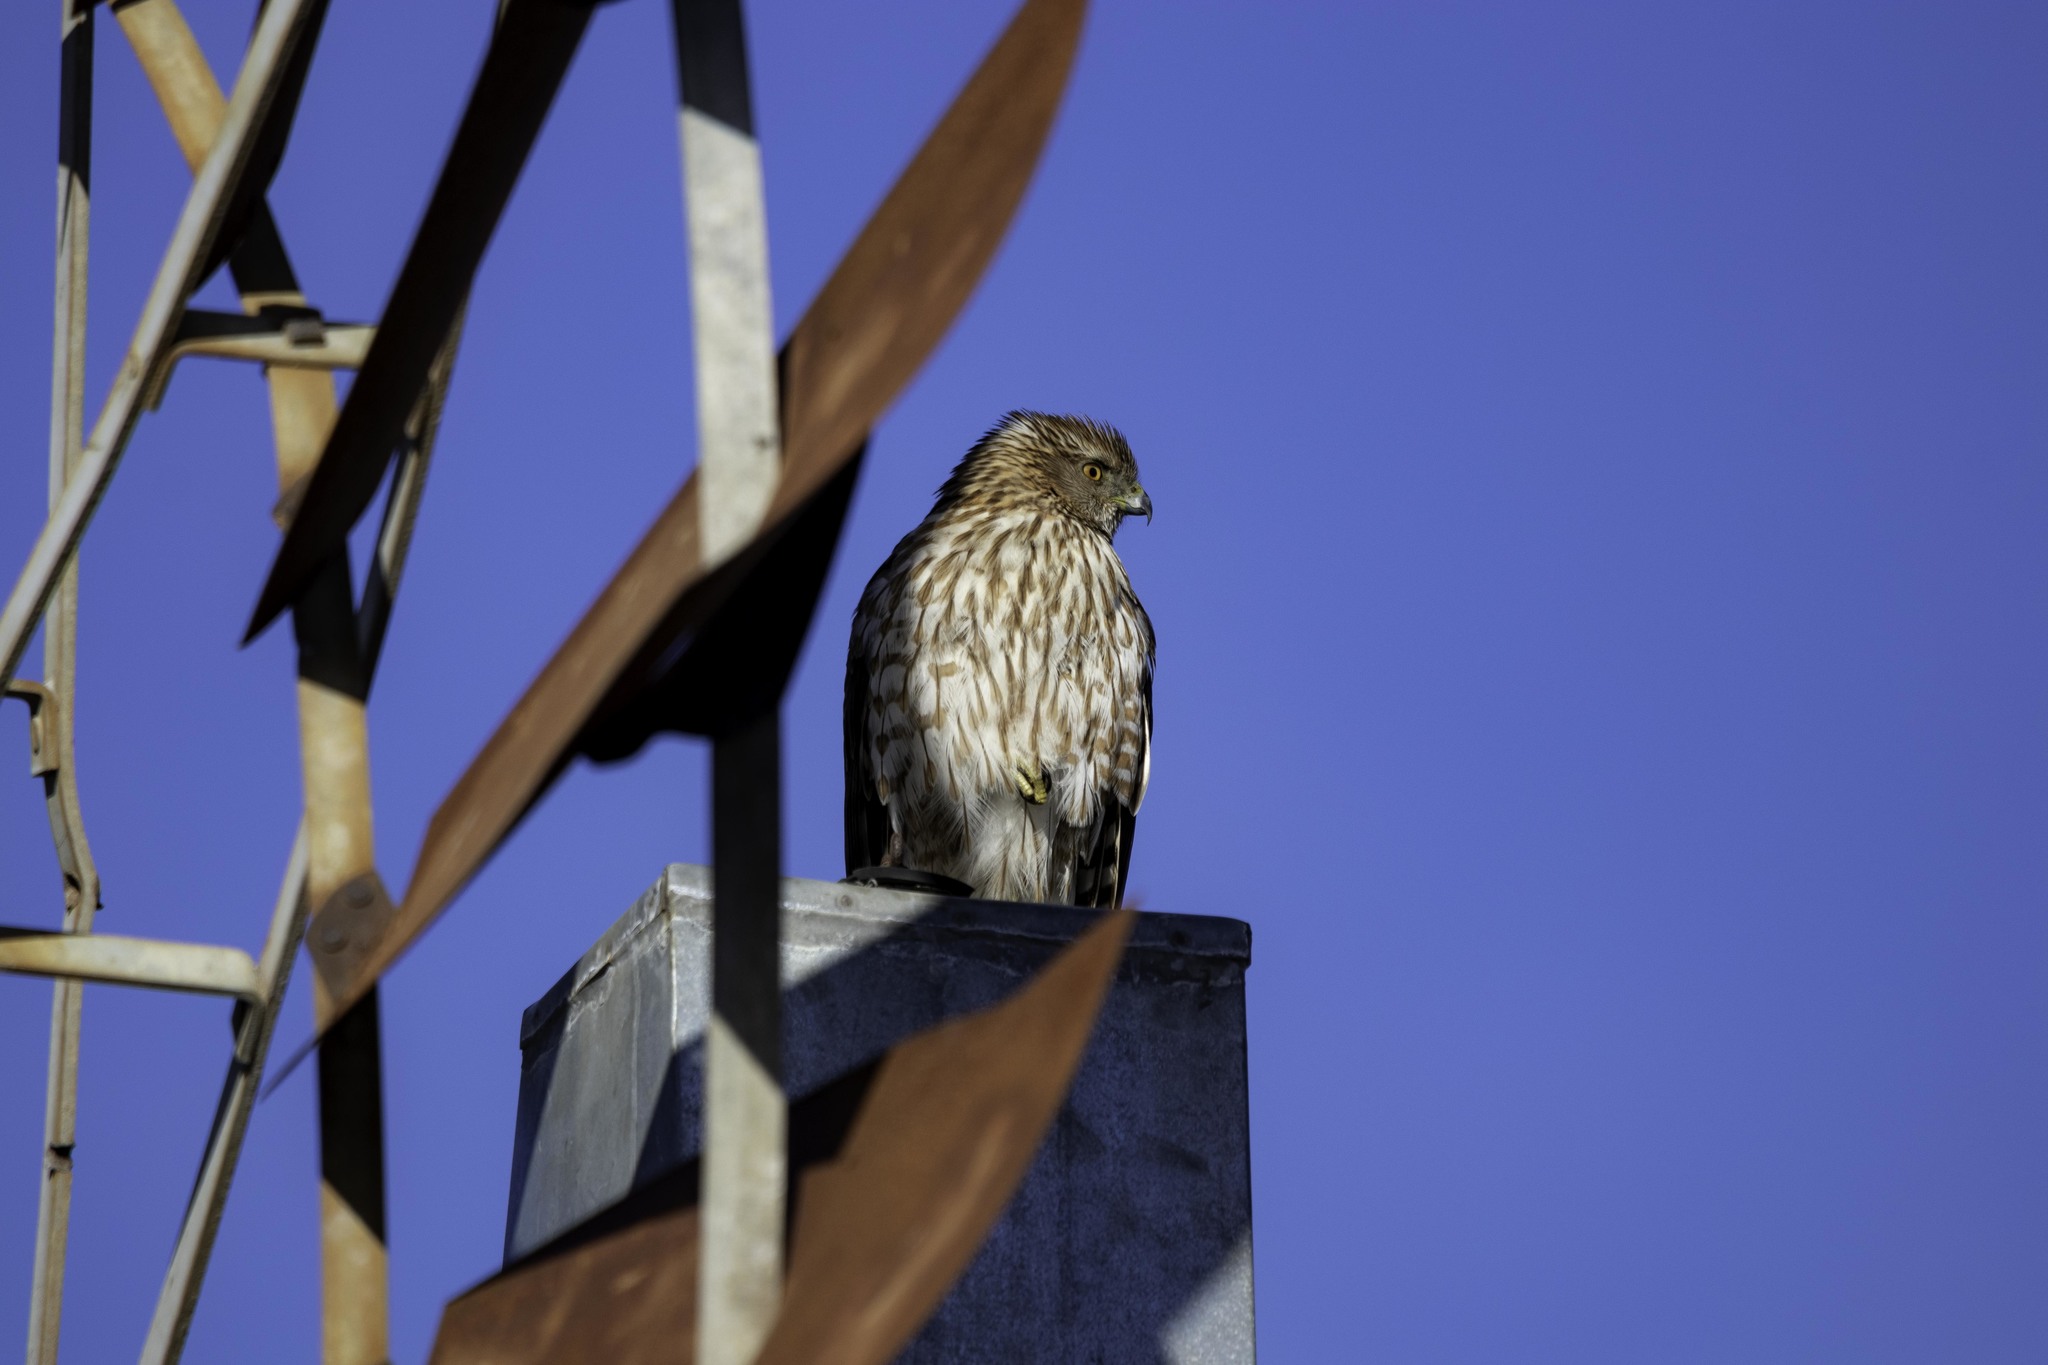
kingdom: Animalia
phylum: Chordata
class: Aves
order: Accipitriformes
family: Accipitridae
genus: Accipiter
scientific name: Accipiter cooperii
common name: Cooper's hawk
